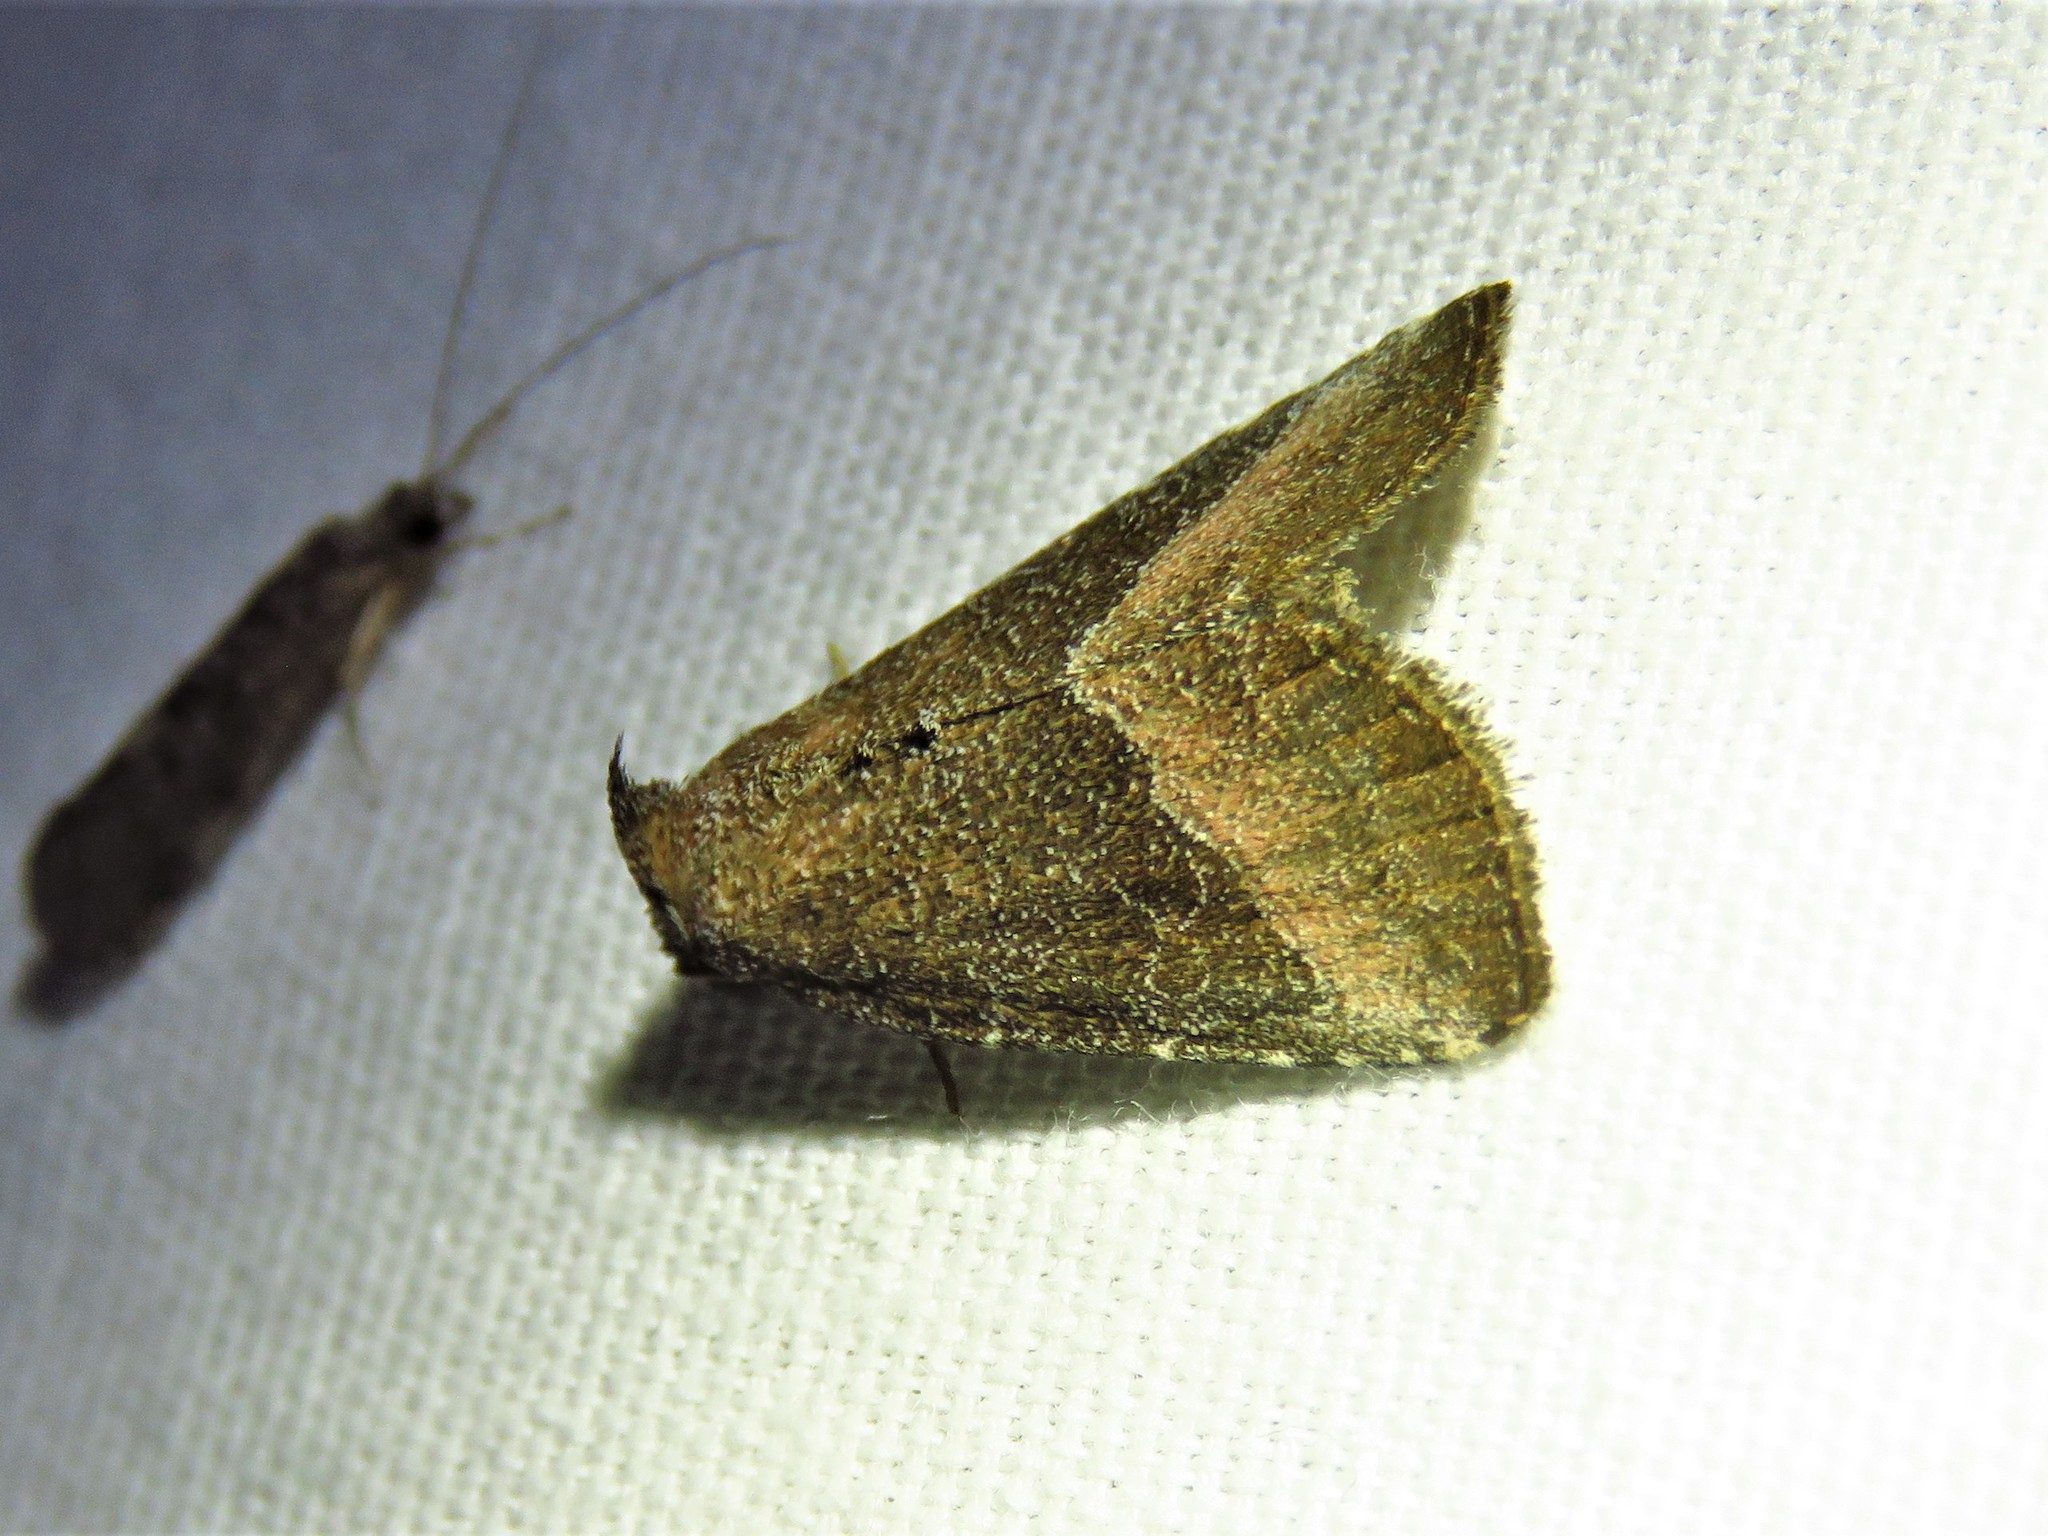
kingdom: Animalia
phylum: Arthropoda
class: Insecta
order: Lepidoptera
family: Noctuidae
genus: Ogdoconta
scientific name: Ogdoconta cinereola
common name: Common pinkband
